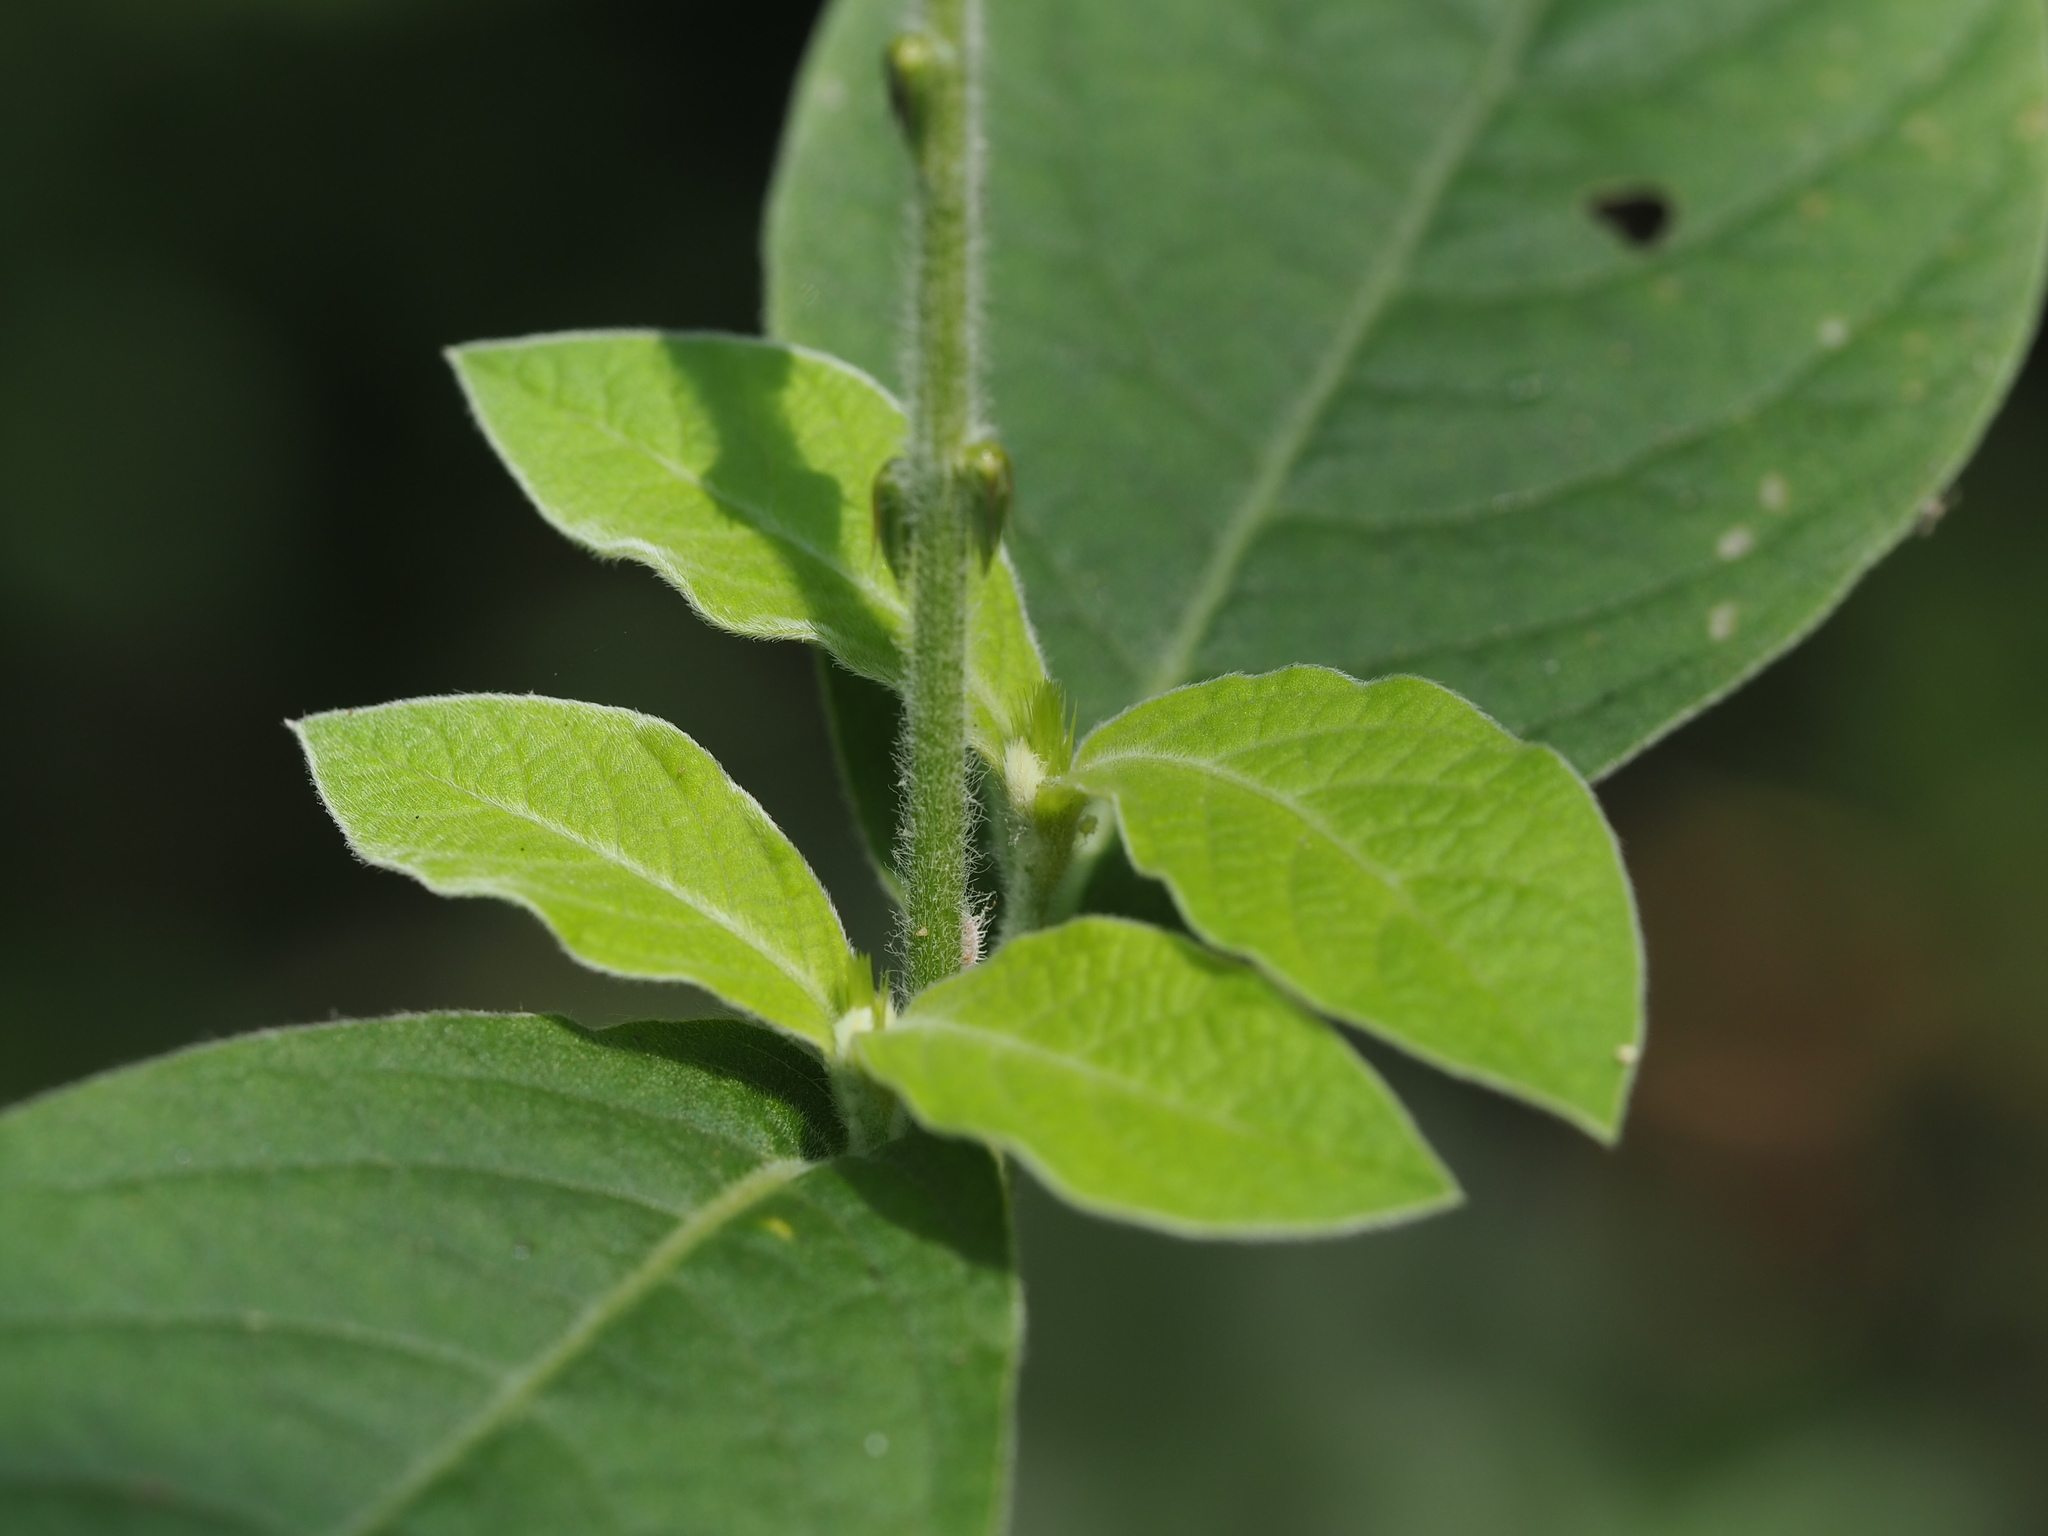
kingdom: Plantae
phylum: Tracheophyta
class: Magnoliopsida
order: Caryophyllales
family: Amaranthaceae
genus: Achyranthes
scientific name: Achyranthes bidentata
